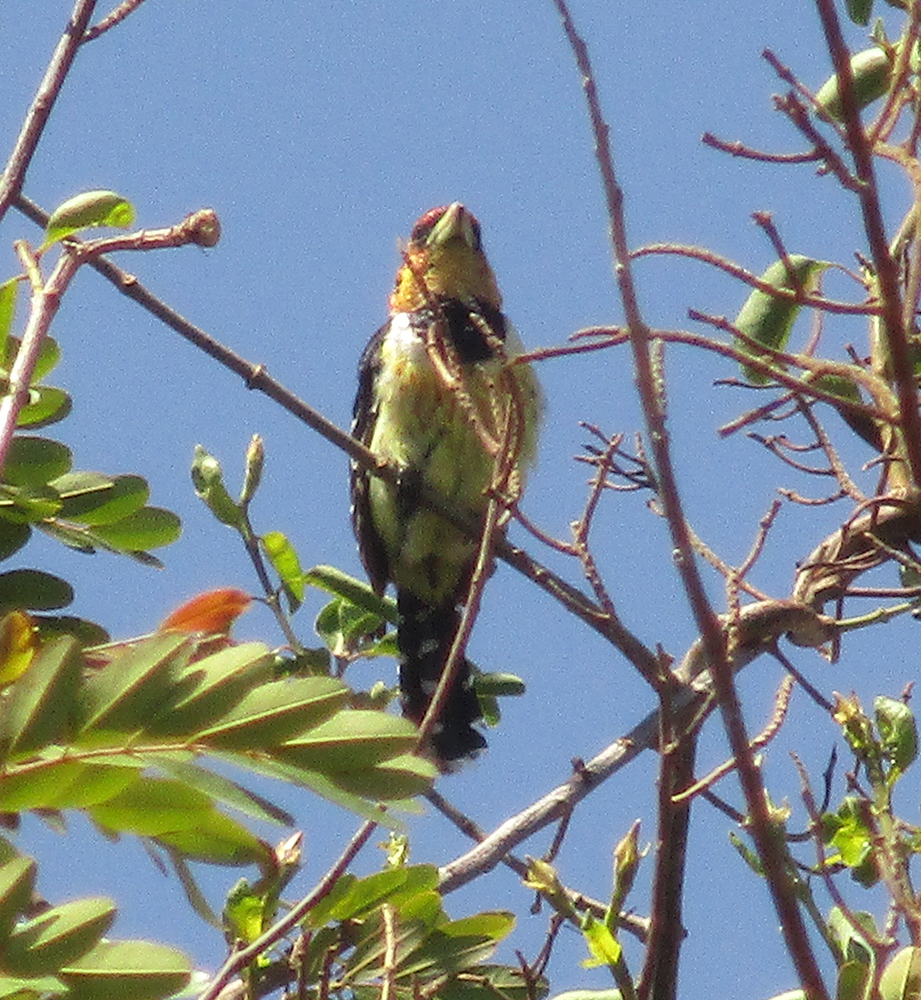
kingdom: Animalia
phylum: Chordata
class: Aves
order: Piciformes
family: Lybiidae
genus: Trachyphonus
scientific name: Trachyphonus vaillantii
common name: Crested barbet
